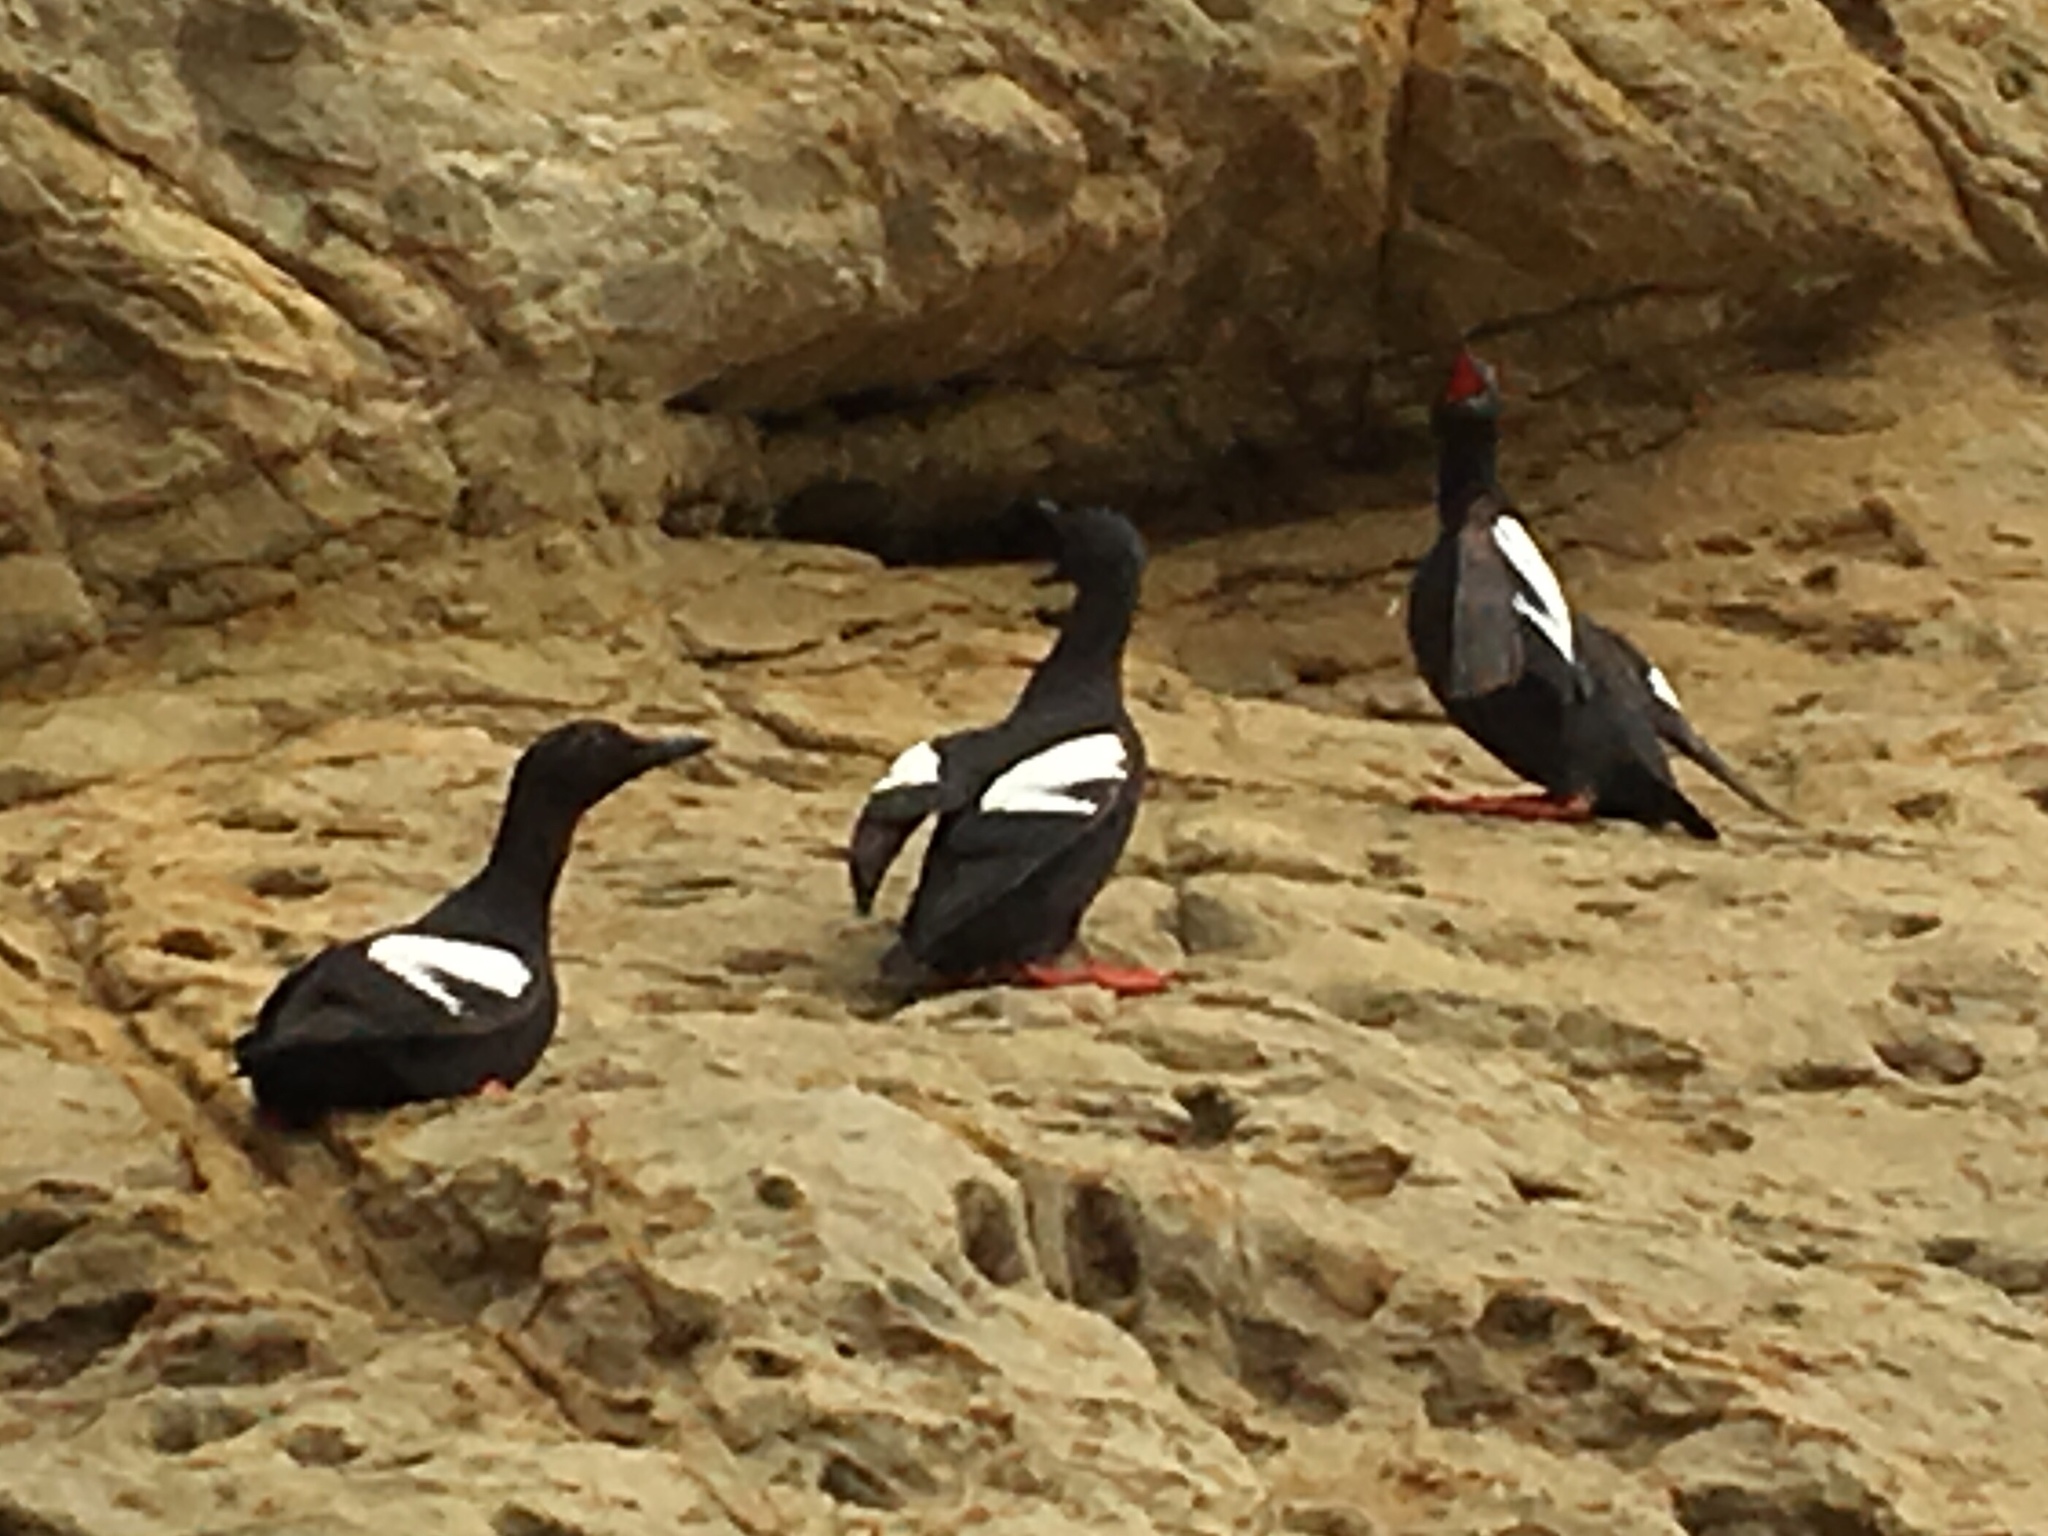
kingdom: Animalia
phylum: Chordata
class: Aves
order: Charadriiformes
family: Alcidae
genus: Cepphus
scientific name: Cepphus columba
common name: Pigeon guillemot
